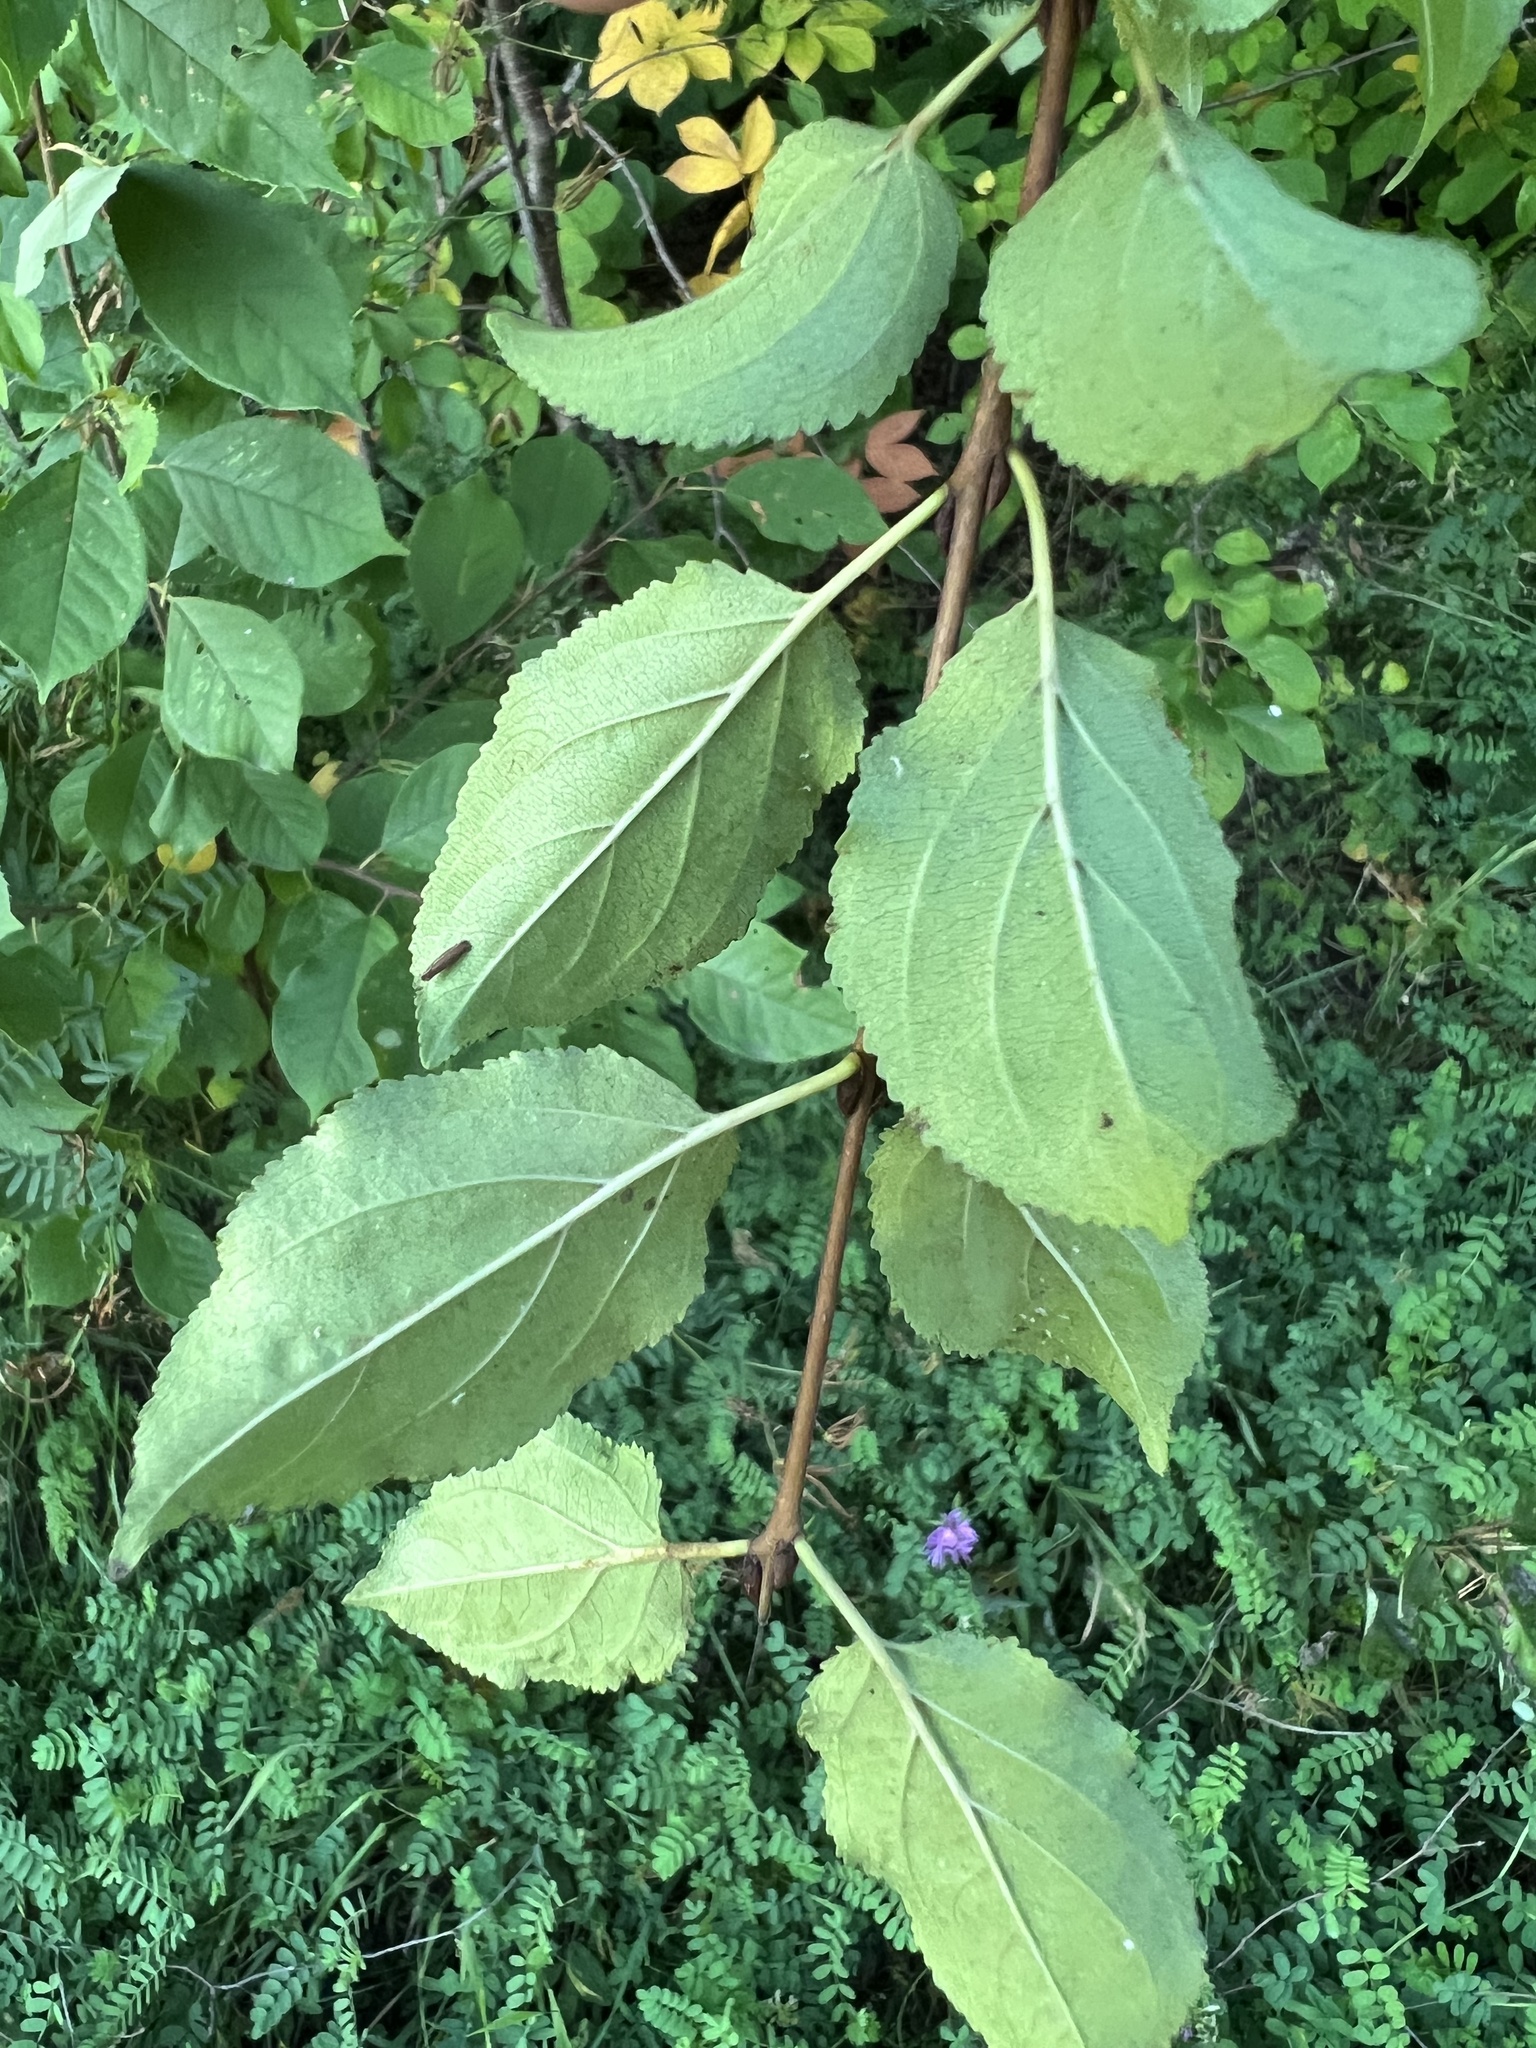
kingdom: Plantae
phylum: Tracheophyta
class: Magnoliopsida
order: Rosales
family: Rhamnaceae
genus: Rhamnus
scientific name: Rhamnus cathartica
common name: Common buckthorn
